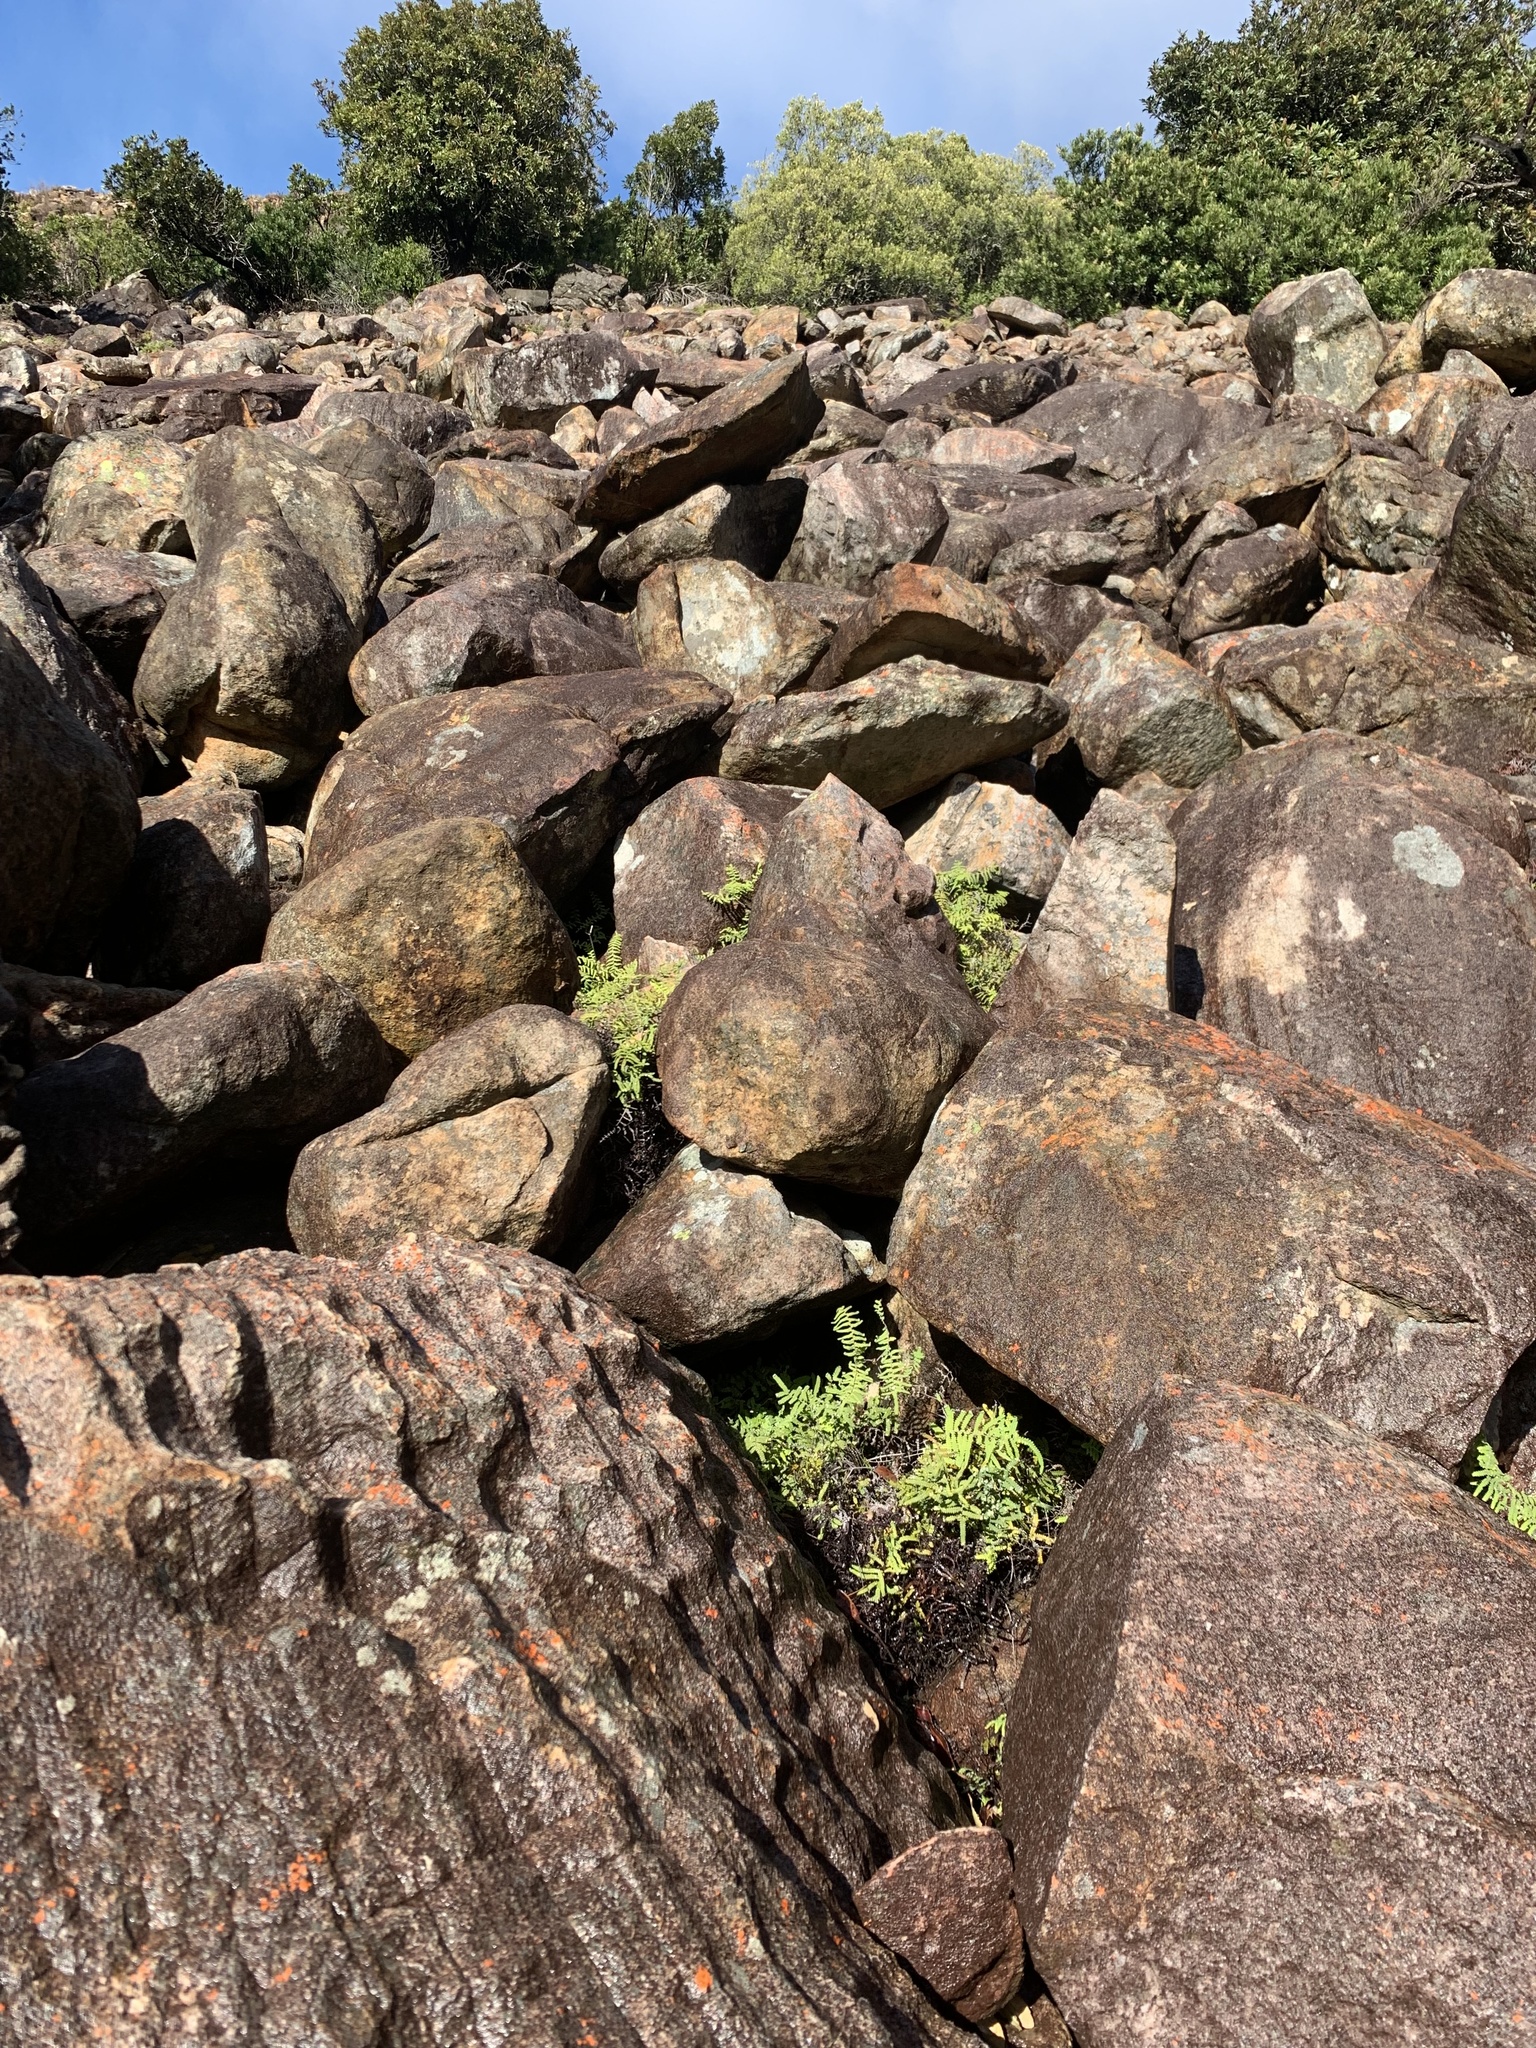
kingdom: Plantae
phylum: Tracheophyta
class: Polypodiopsida
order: Gleicheniales
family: Gleicheniaceae
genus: Gleichenia
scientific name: Gleichenia polypodioides
